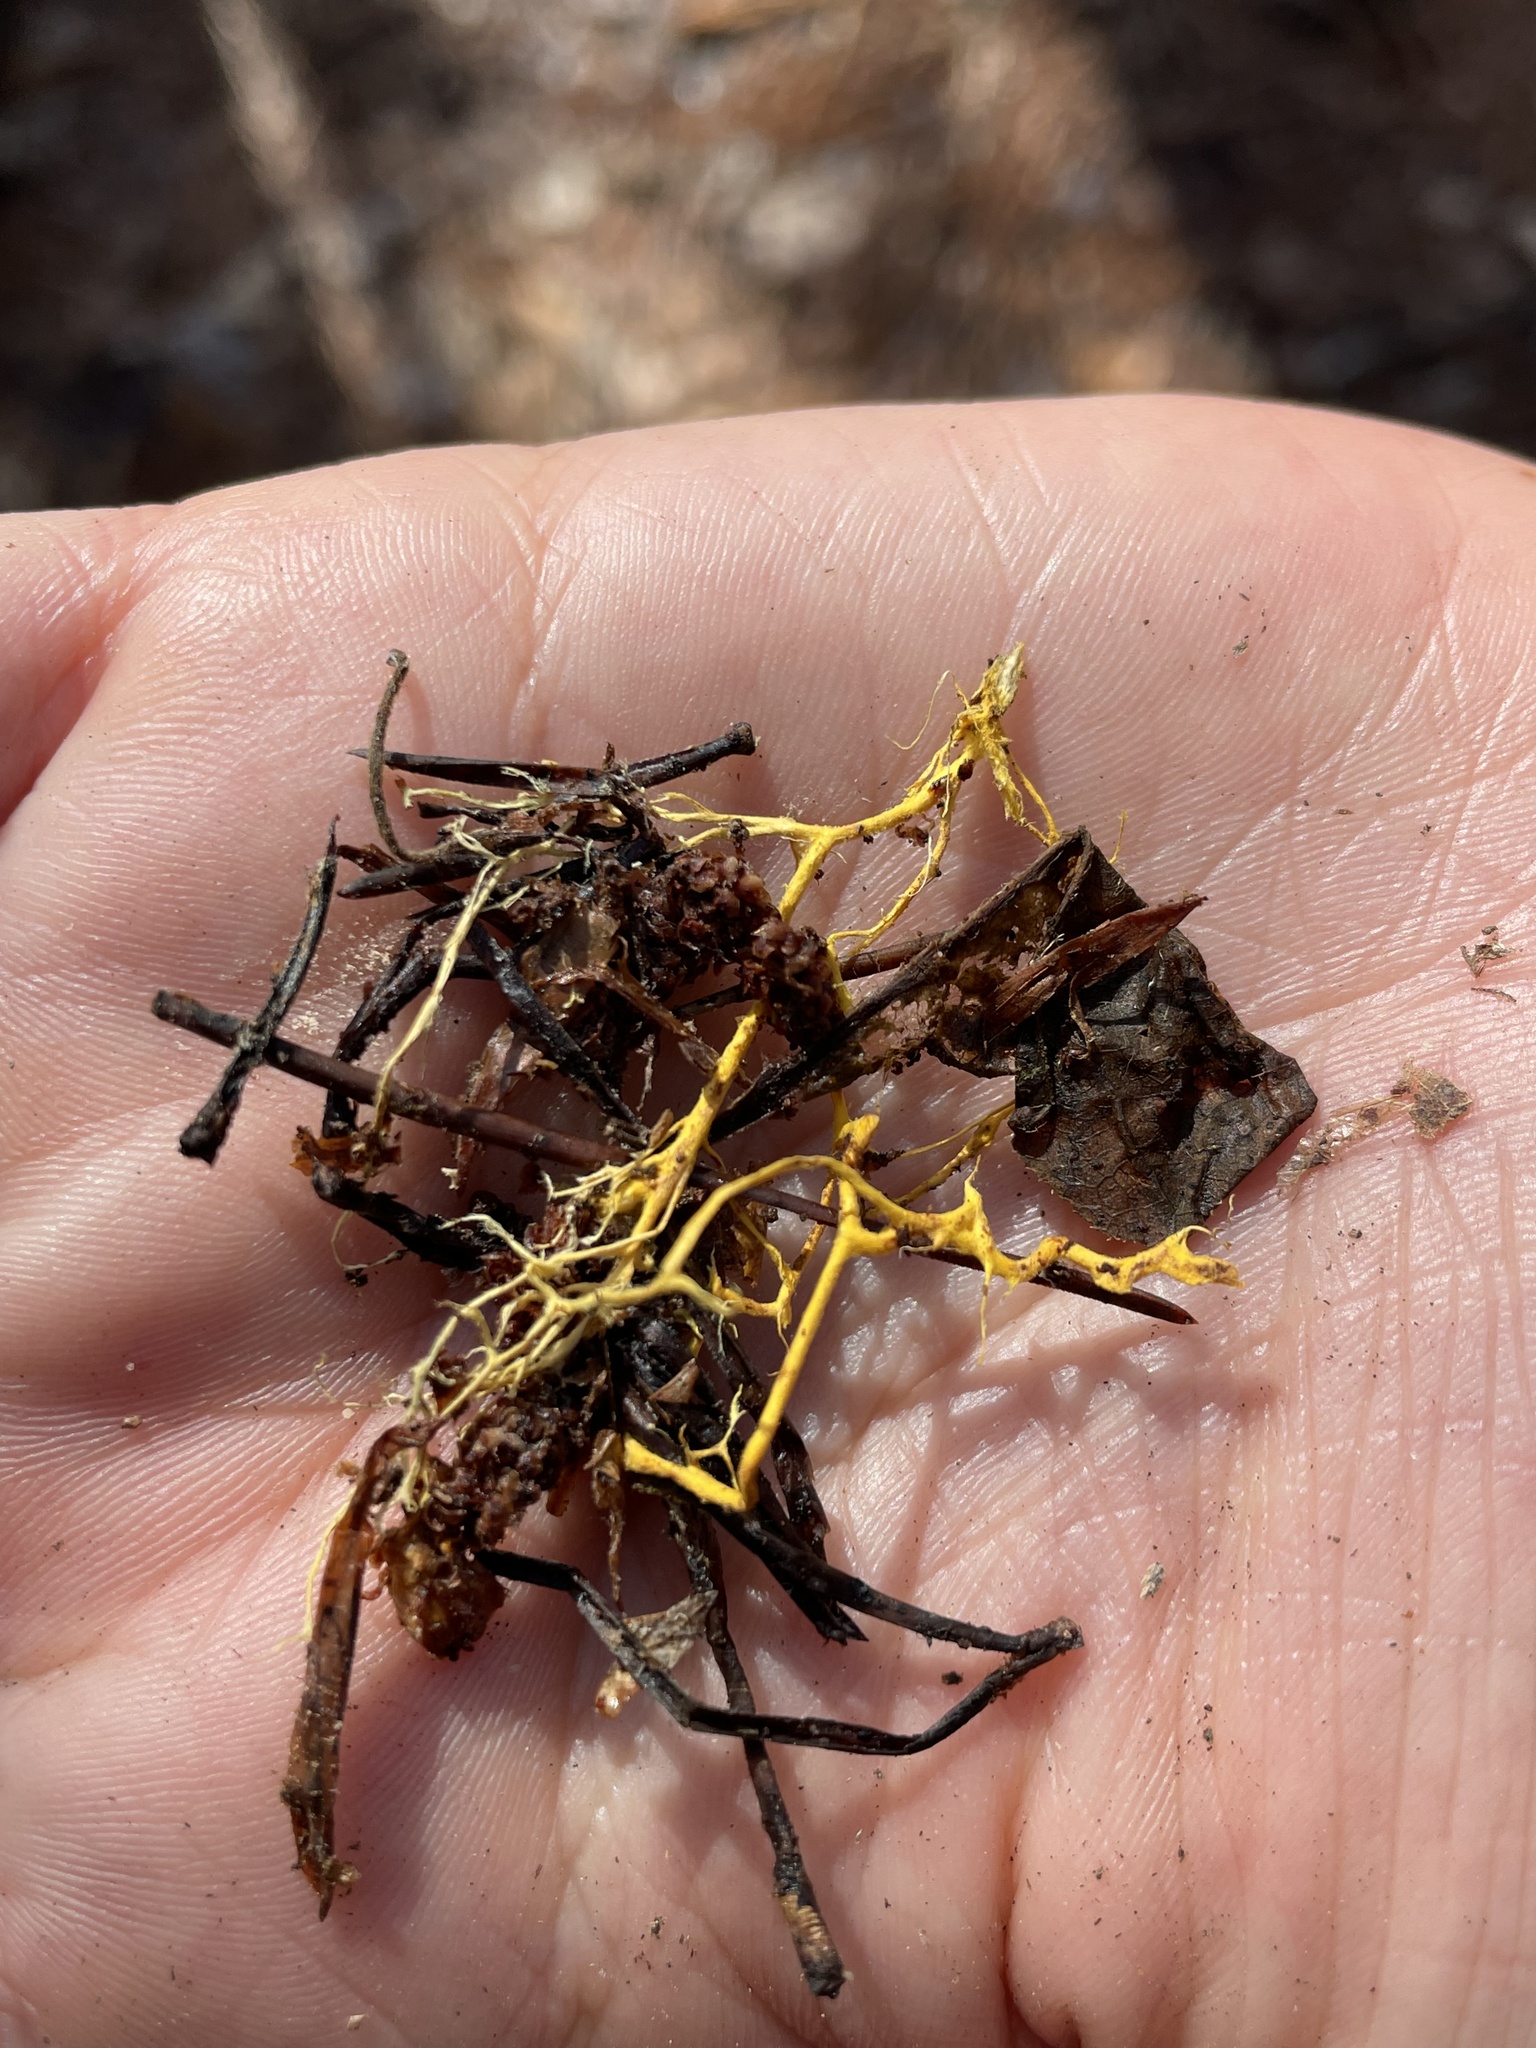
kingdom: Fungi
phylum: Basidiomycota
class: Agaricomycetes
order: Polyporales
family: Meruliaceae
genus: Hydnophlebia
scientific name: Hydnophlebia chrysorhiza
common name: Spreading yellow tooth
